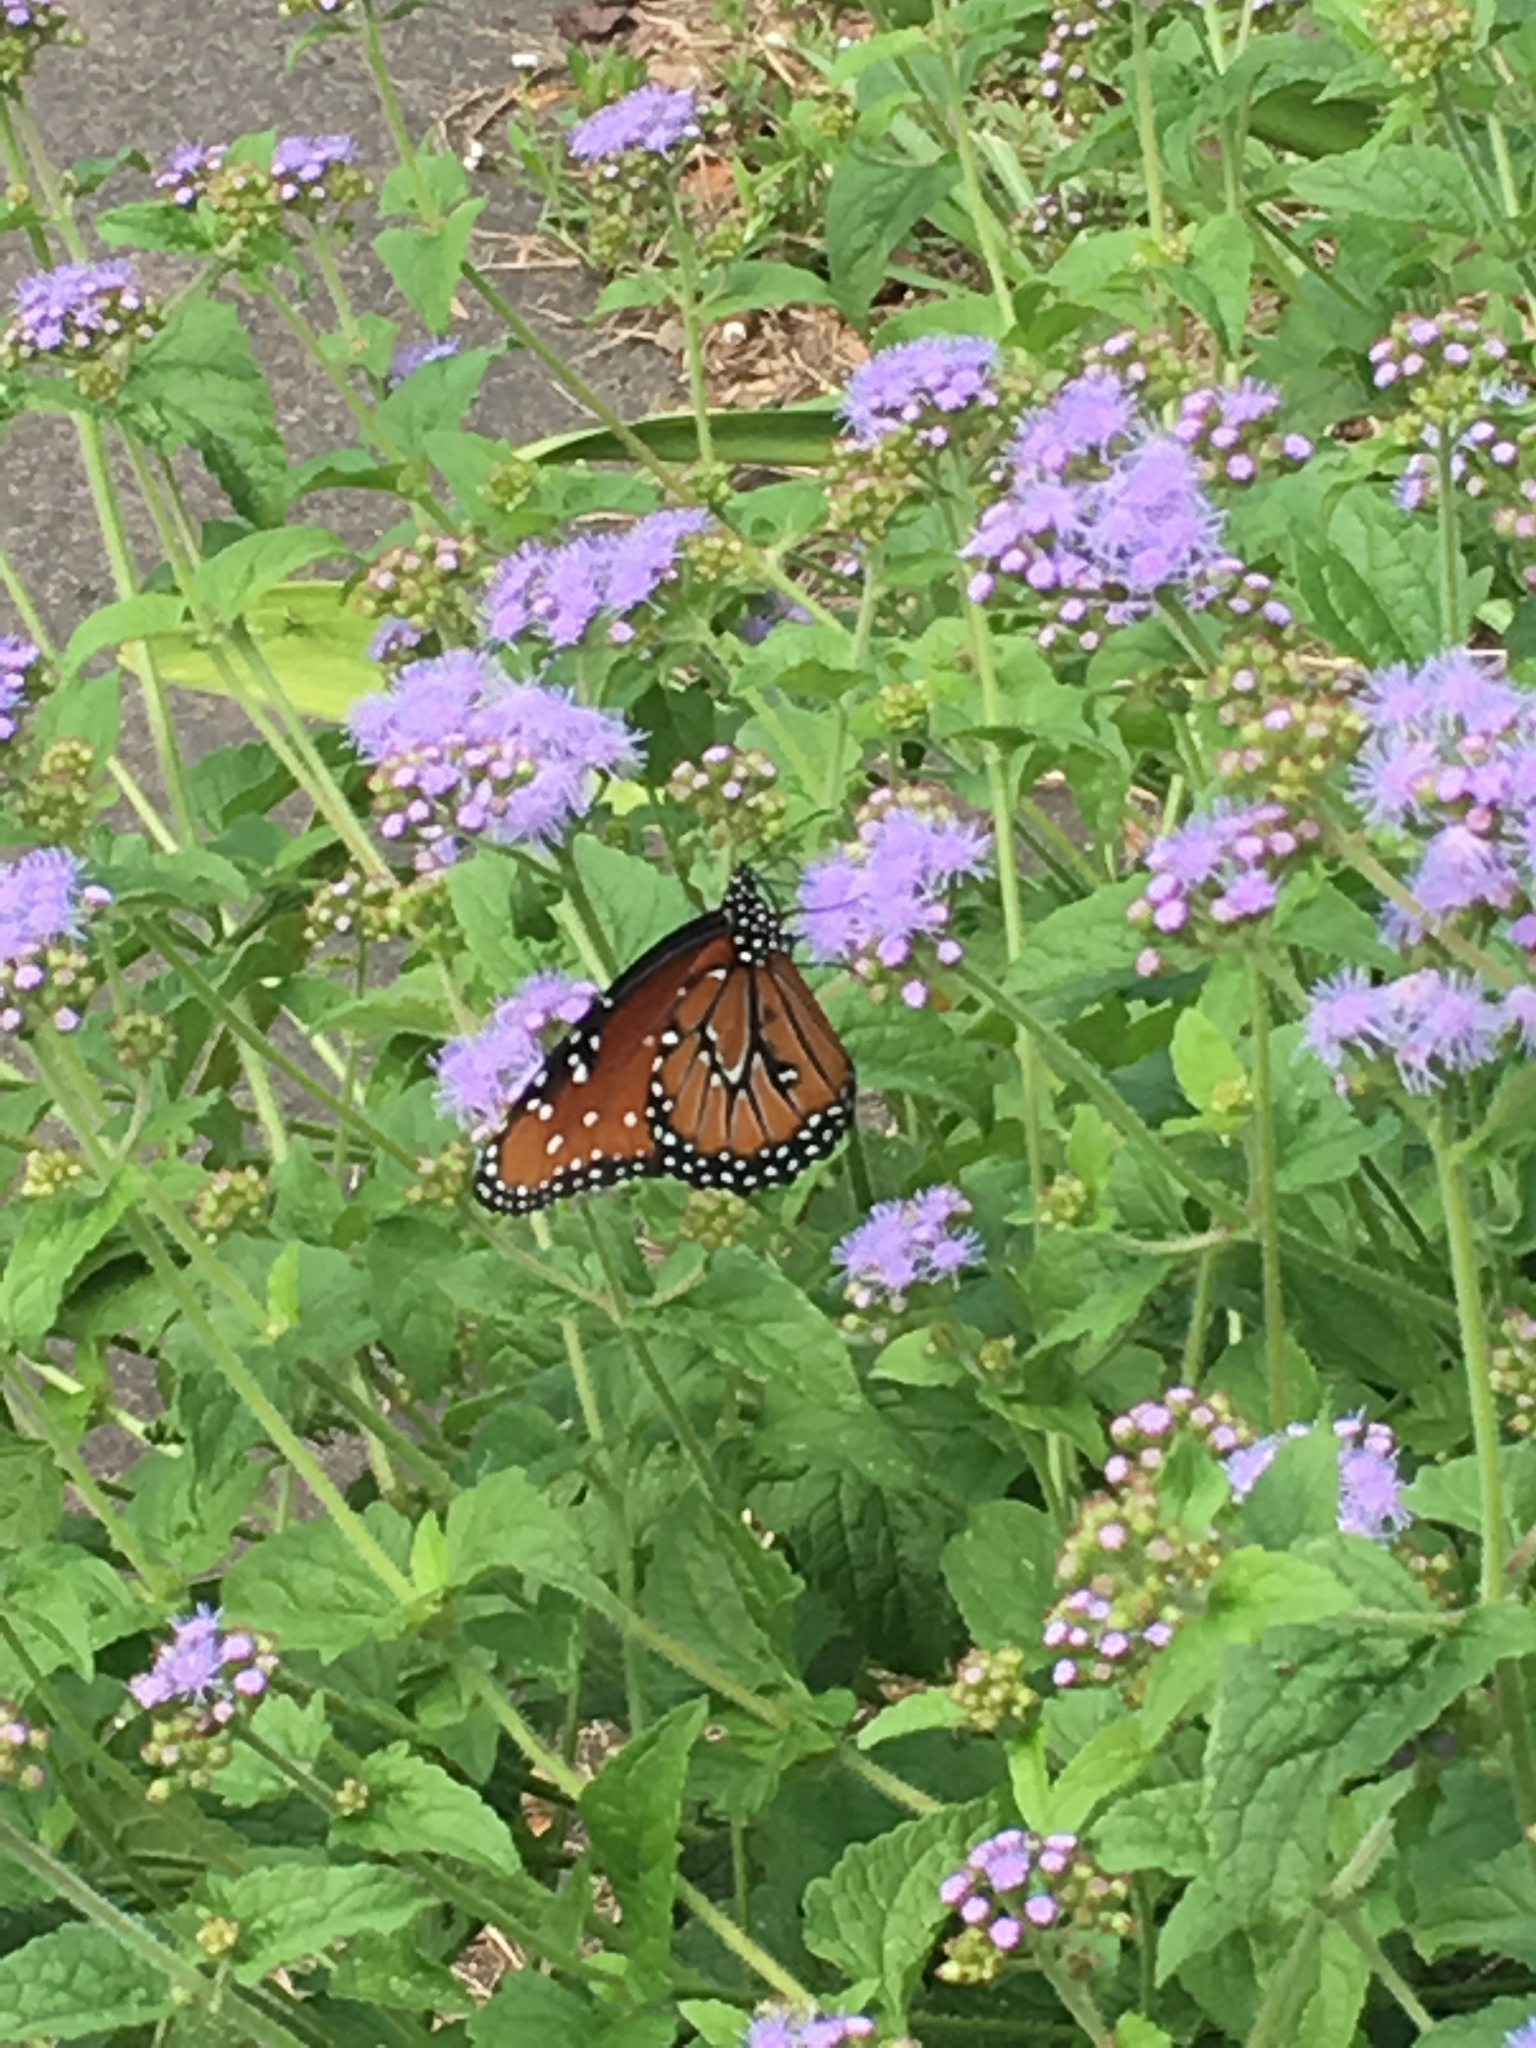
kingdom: Animalia
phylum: Arthropoda
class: Insecta
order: Lepidoptera
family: Nymphalidae
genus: Danaus
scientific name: Danaus gilippus
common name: Queen
